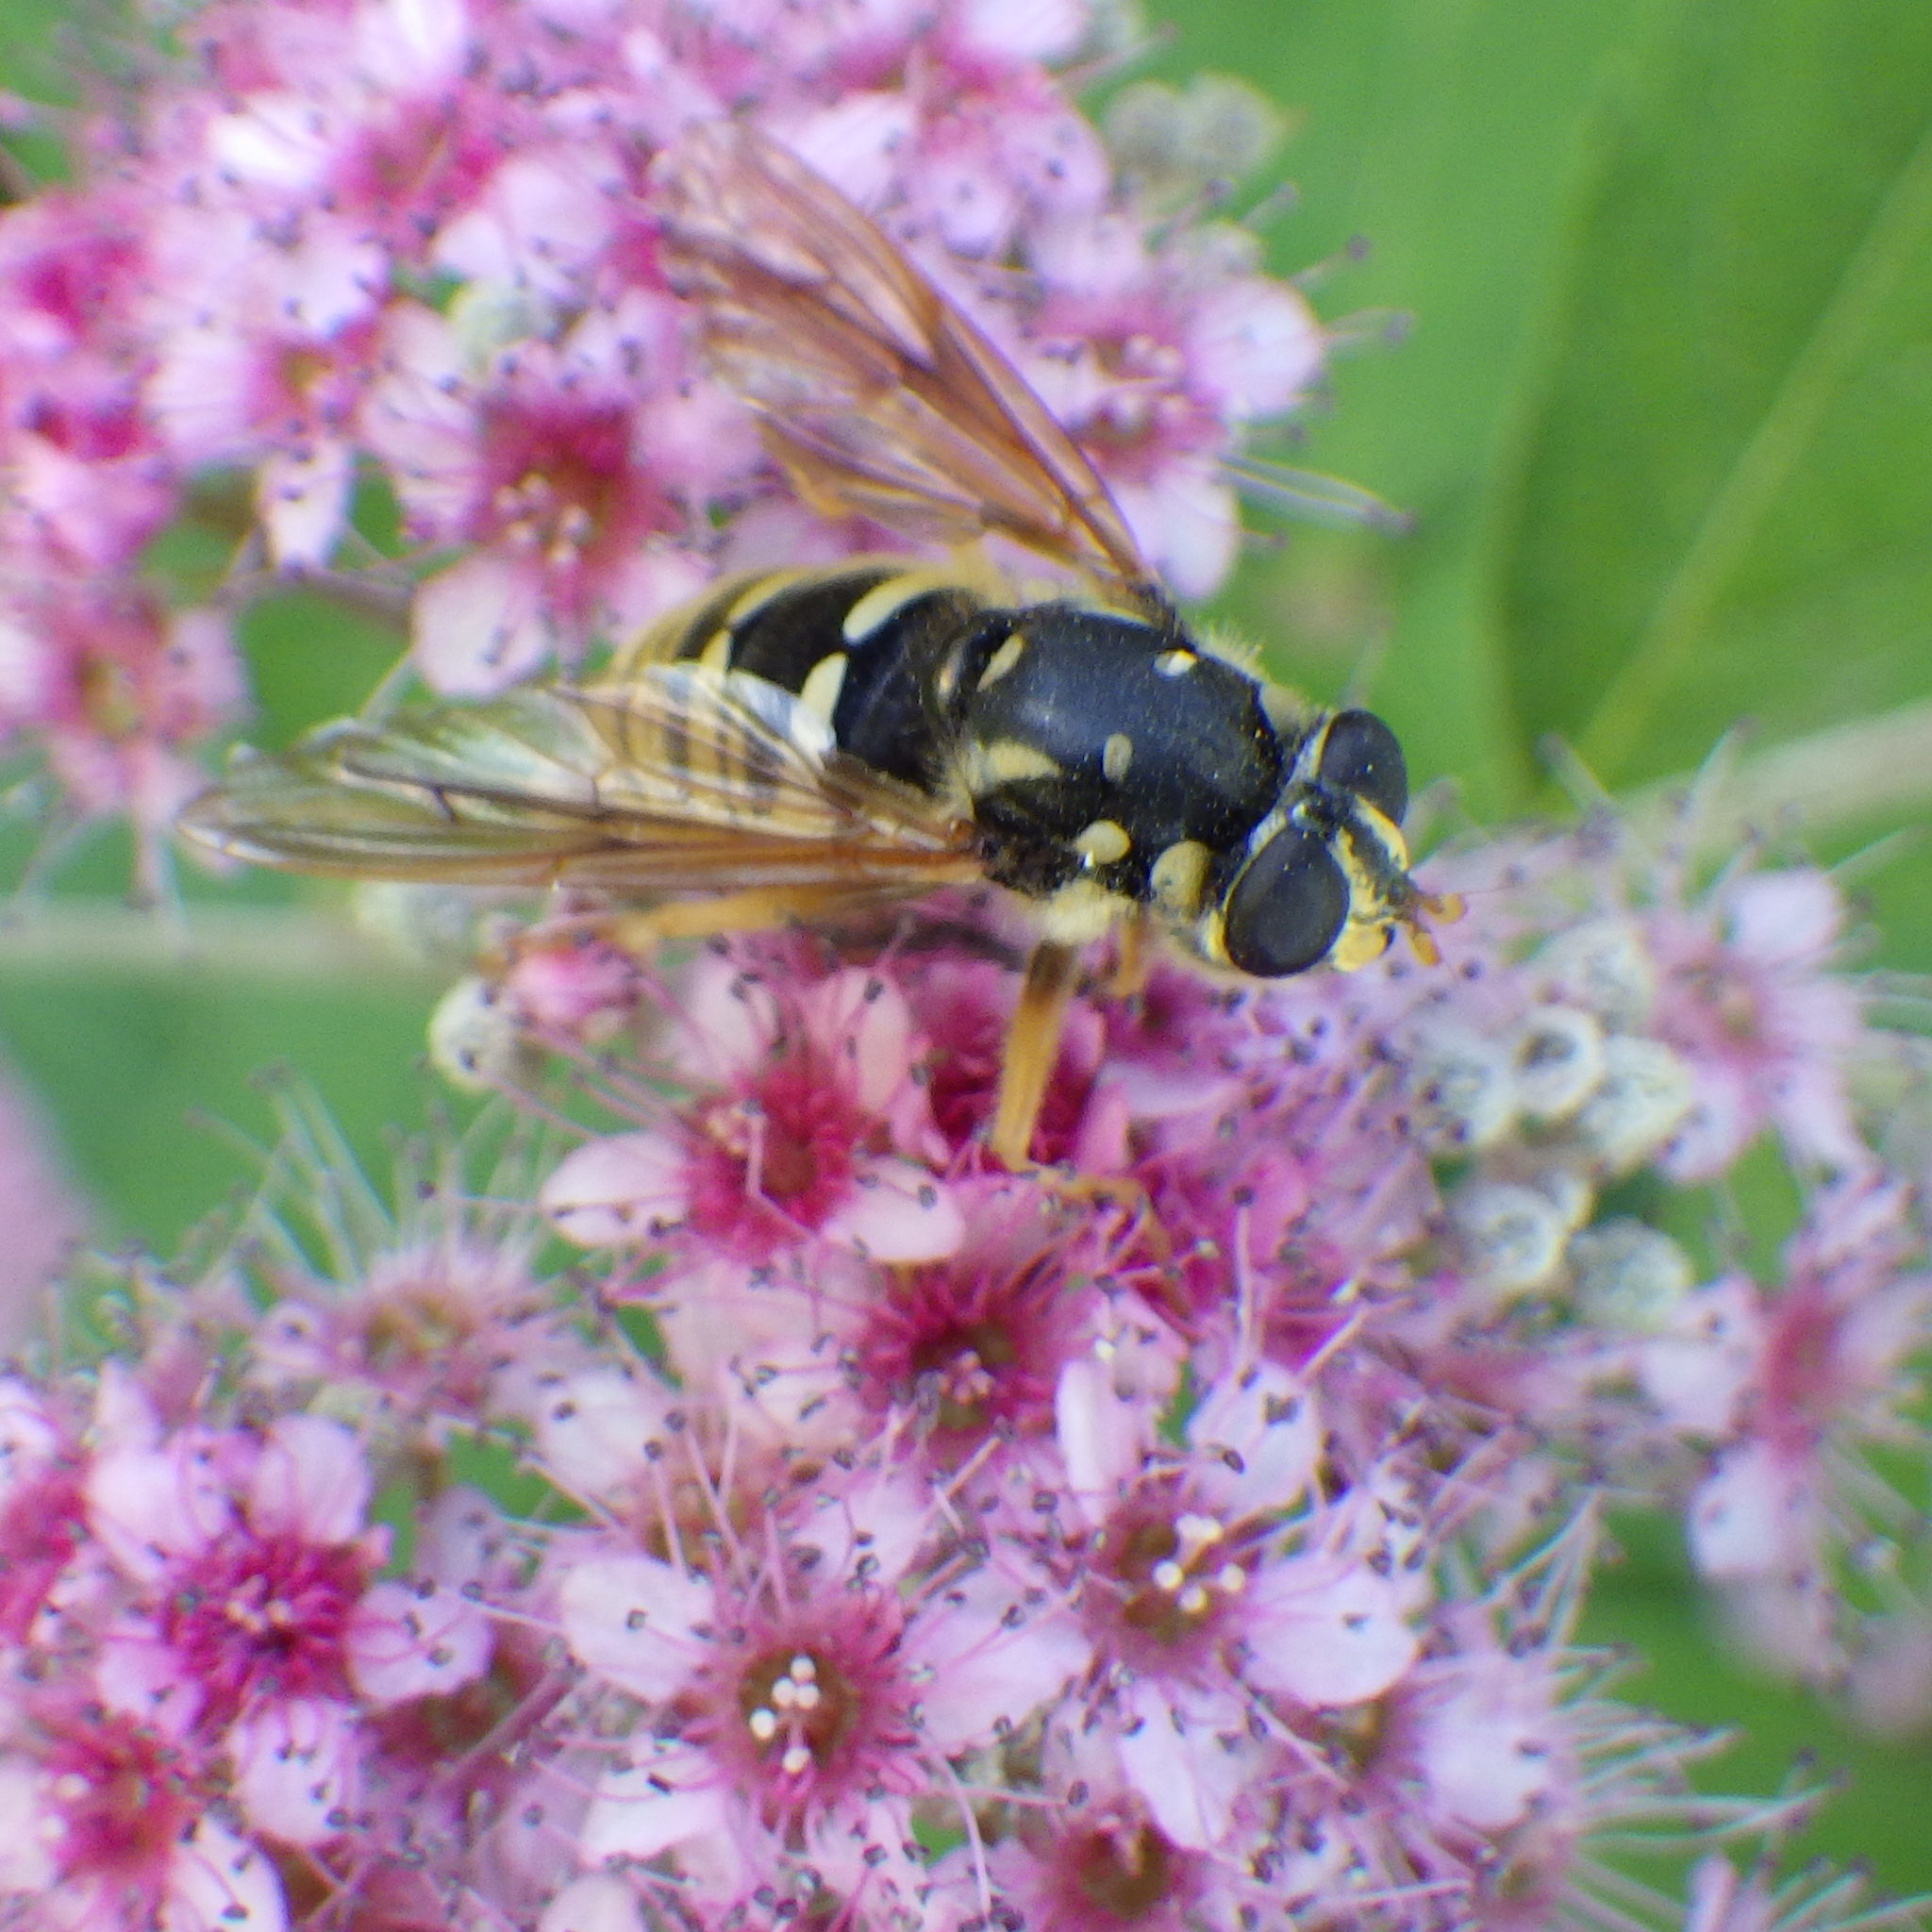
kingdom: Animalia
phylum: Arthropoda
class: Insecta
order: Diptera
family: Syrphidae
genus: Temnostoma
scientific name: Temnostoma alternans
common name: Wasp-like falsehorn
